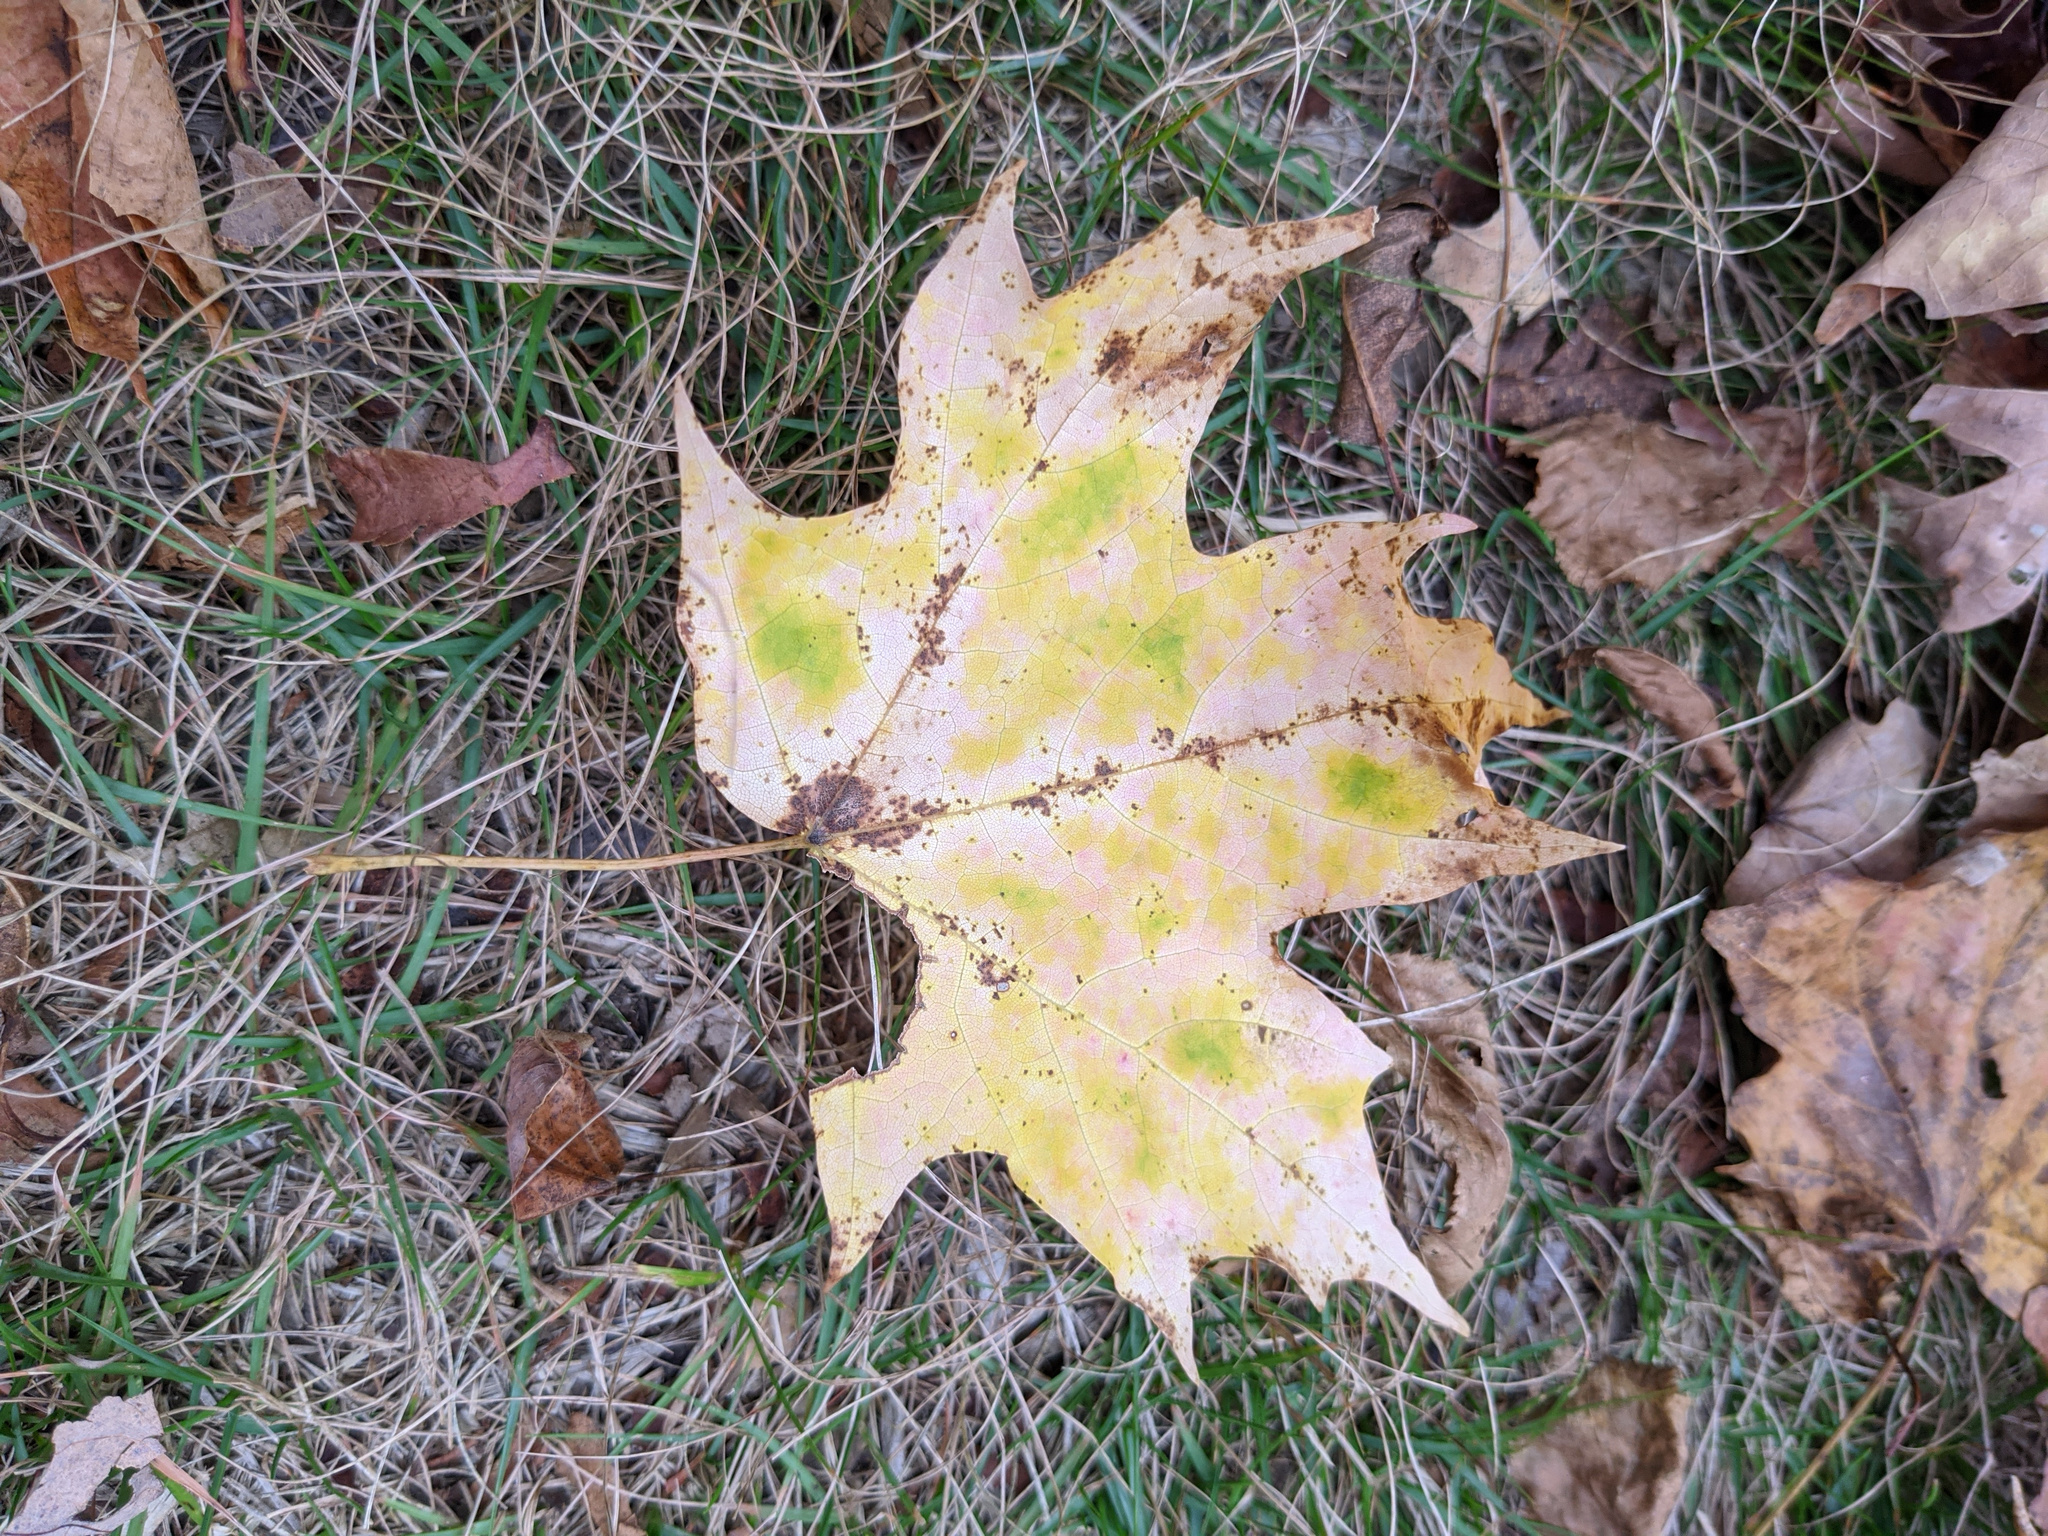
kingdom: Plantae
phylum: Tracheophyta
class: Magnoliopsida
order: Sapindales
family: Sapindaceae
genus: Acer
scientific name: Acer saccharum
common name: Sugar maple
